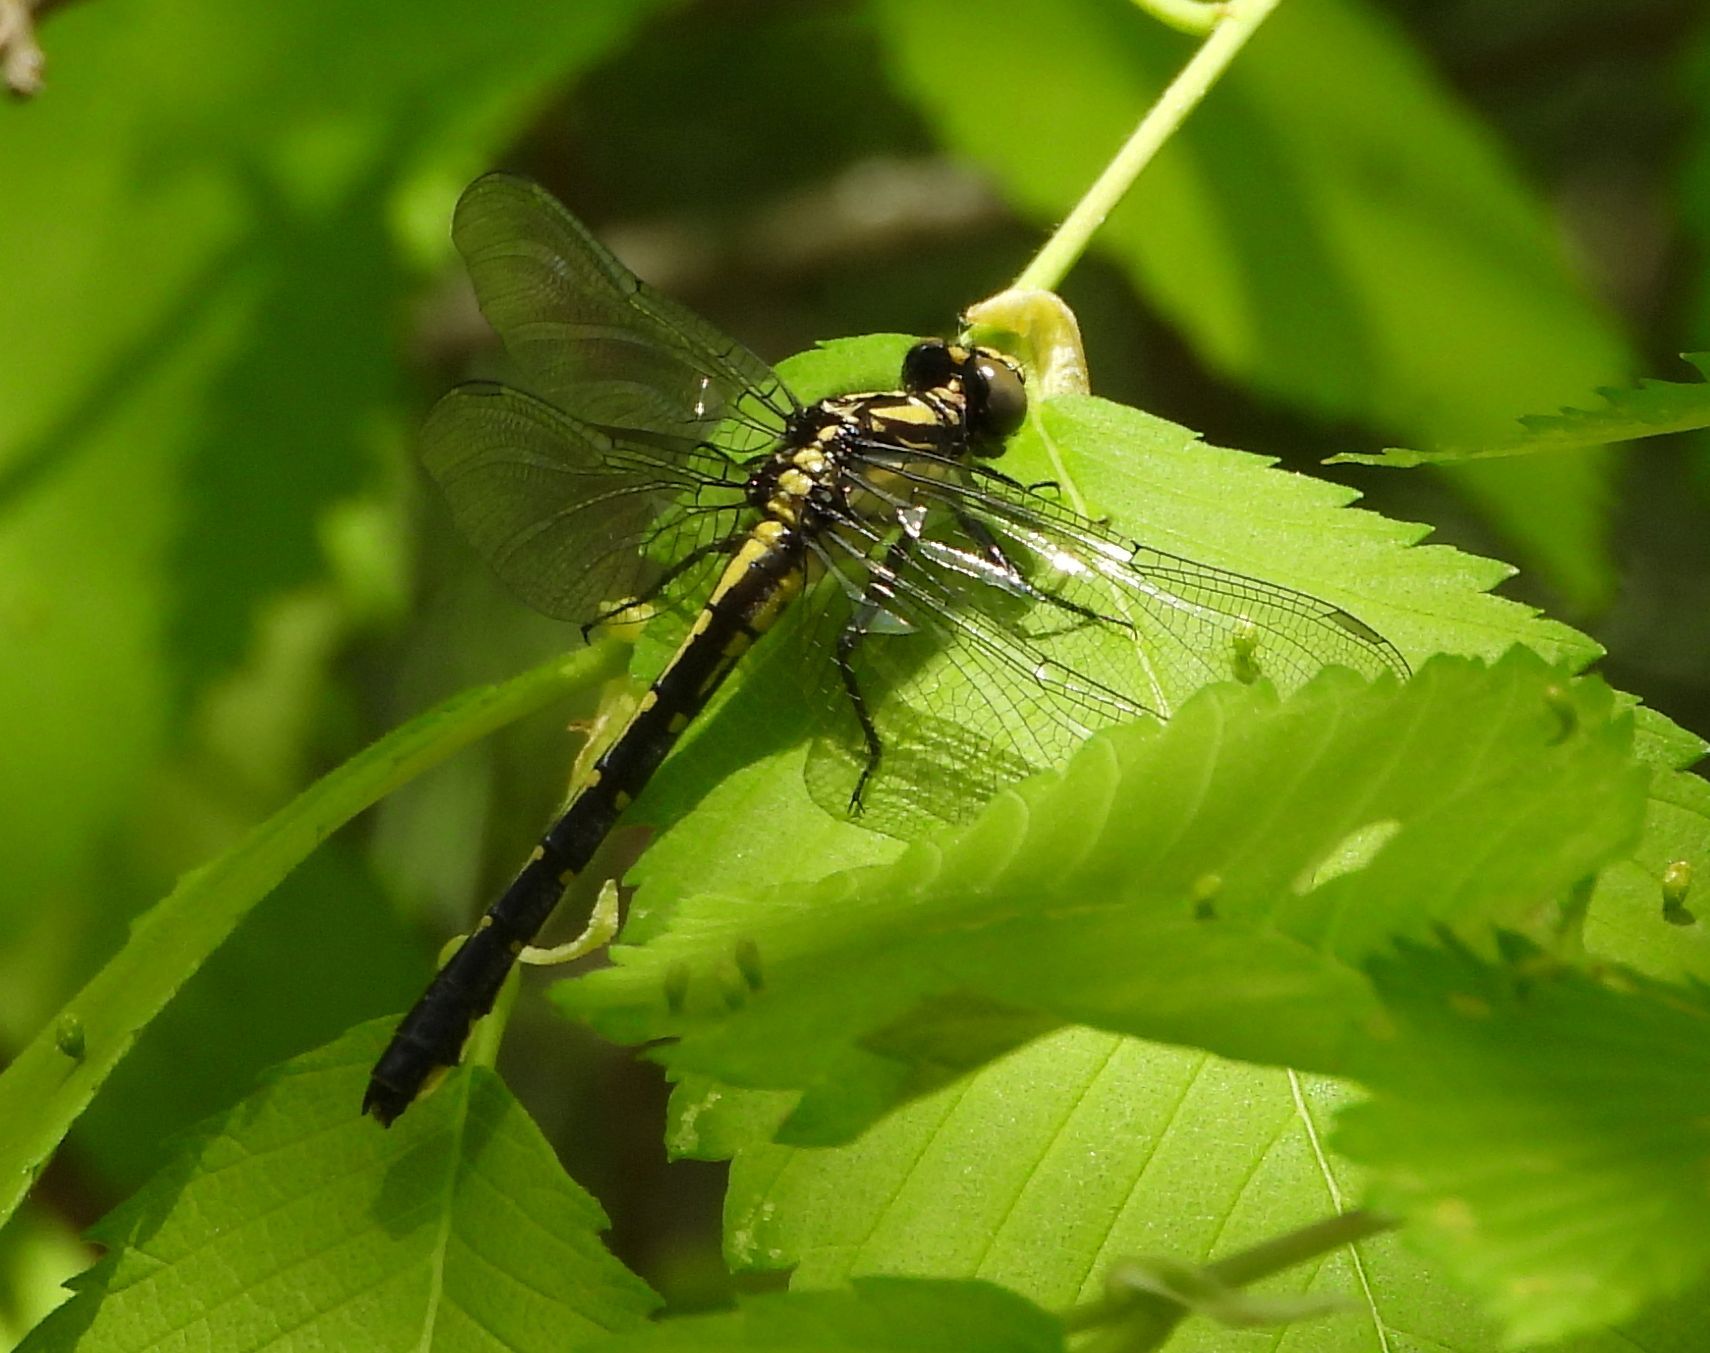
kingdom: Animalia
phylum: Arthropoda
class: Insecta
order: Odonata
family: Gomphidae
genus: Hylogomphus
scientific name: Hylogomphus adelphus
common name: Mustached clubtail
